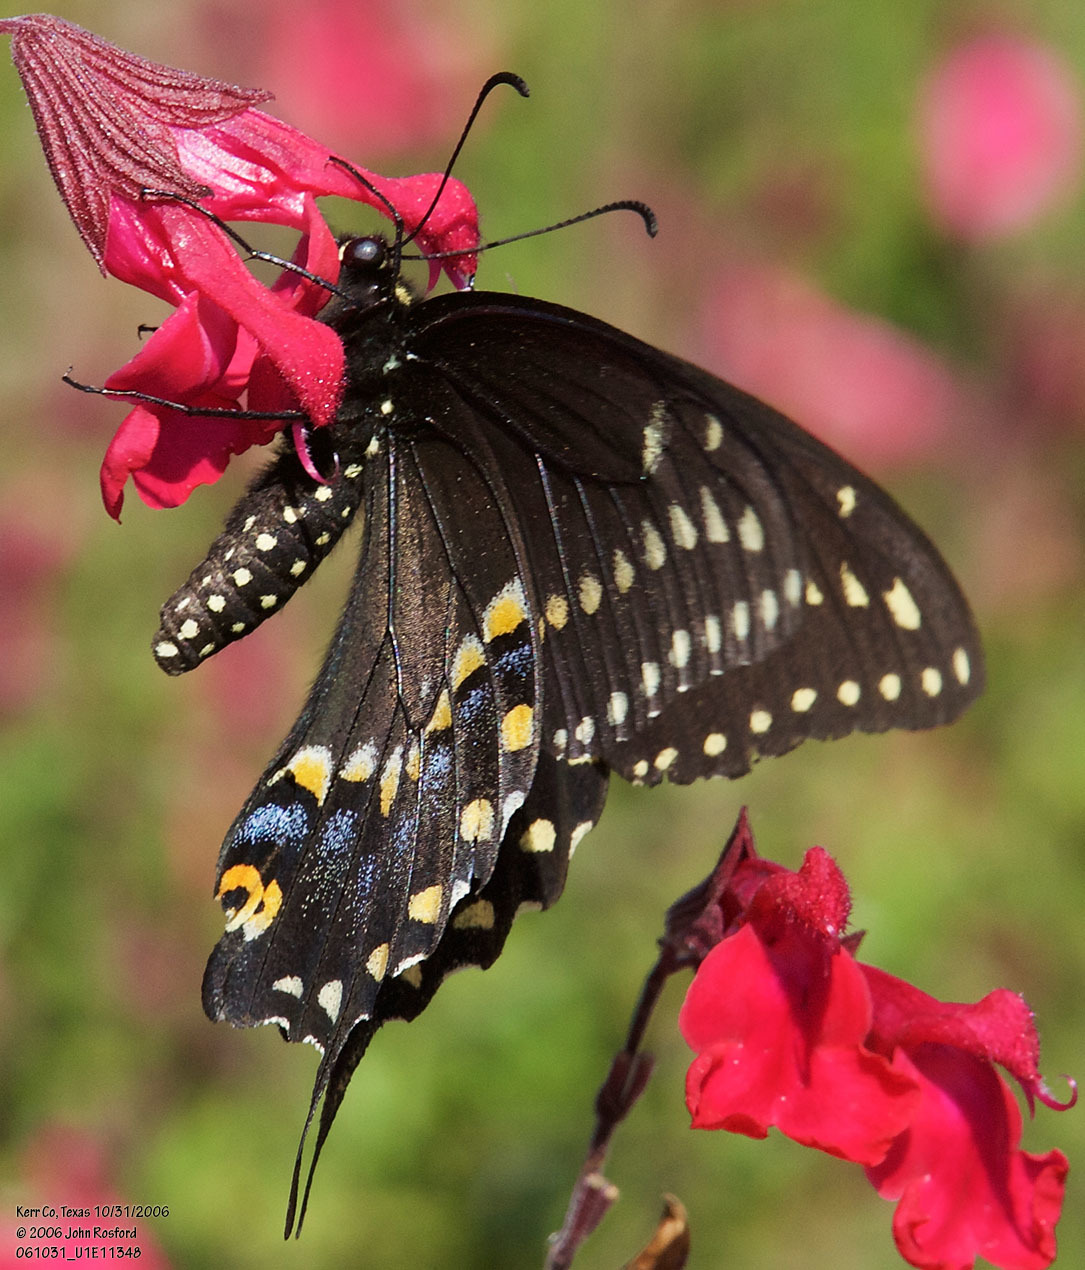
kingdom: Animalia
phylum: Arthropoda
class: Insecta
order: Lepidoptera
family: Papilionidae
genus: Papilio
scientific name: Papilio polyxenes
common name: Black swallowtail
